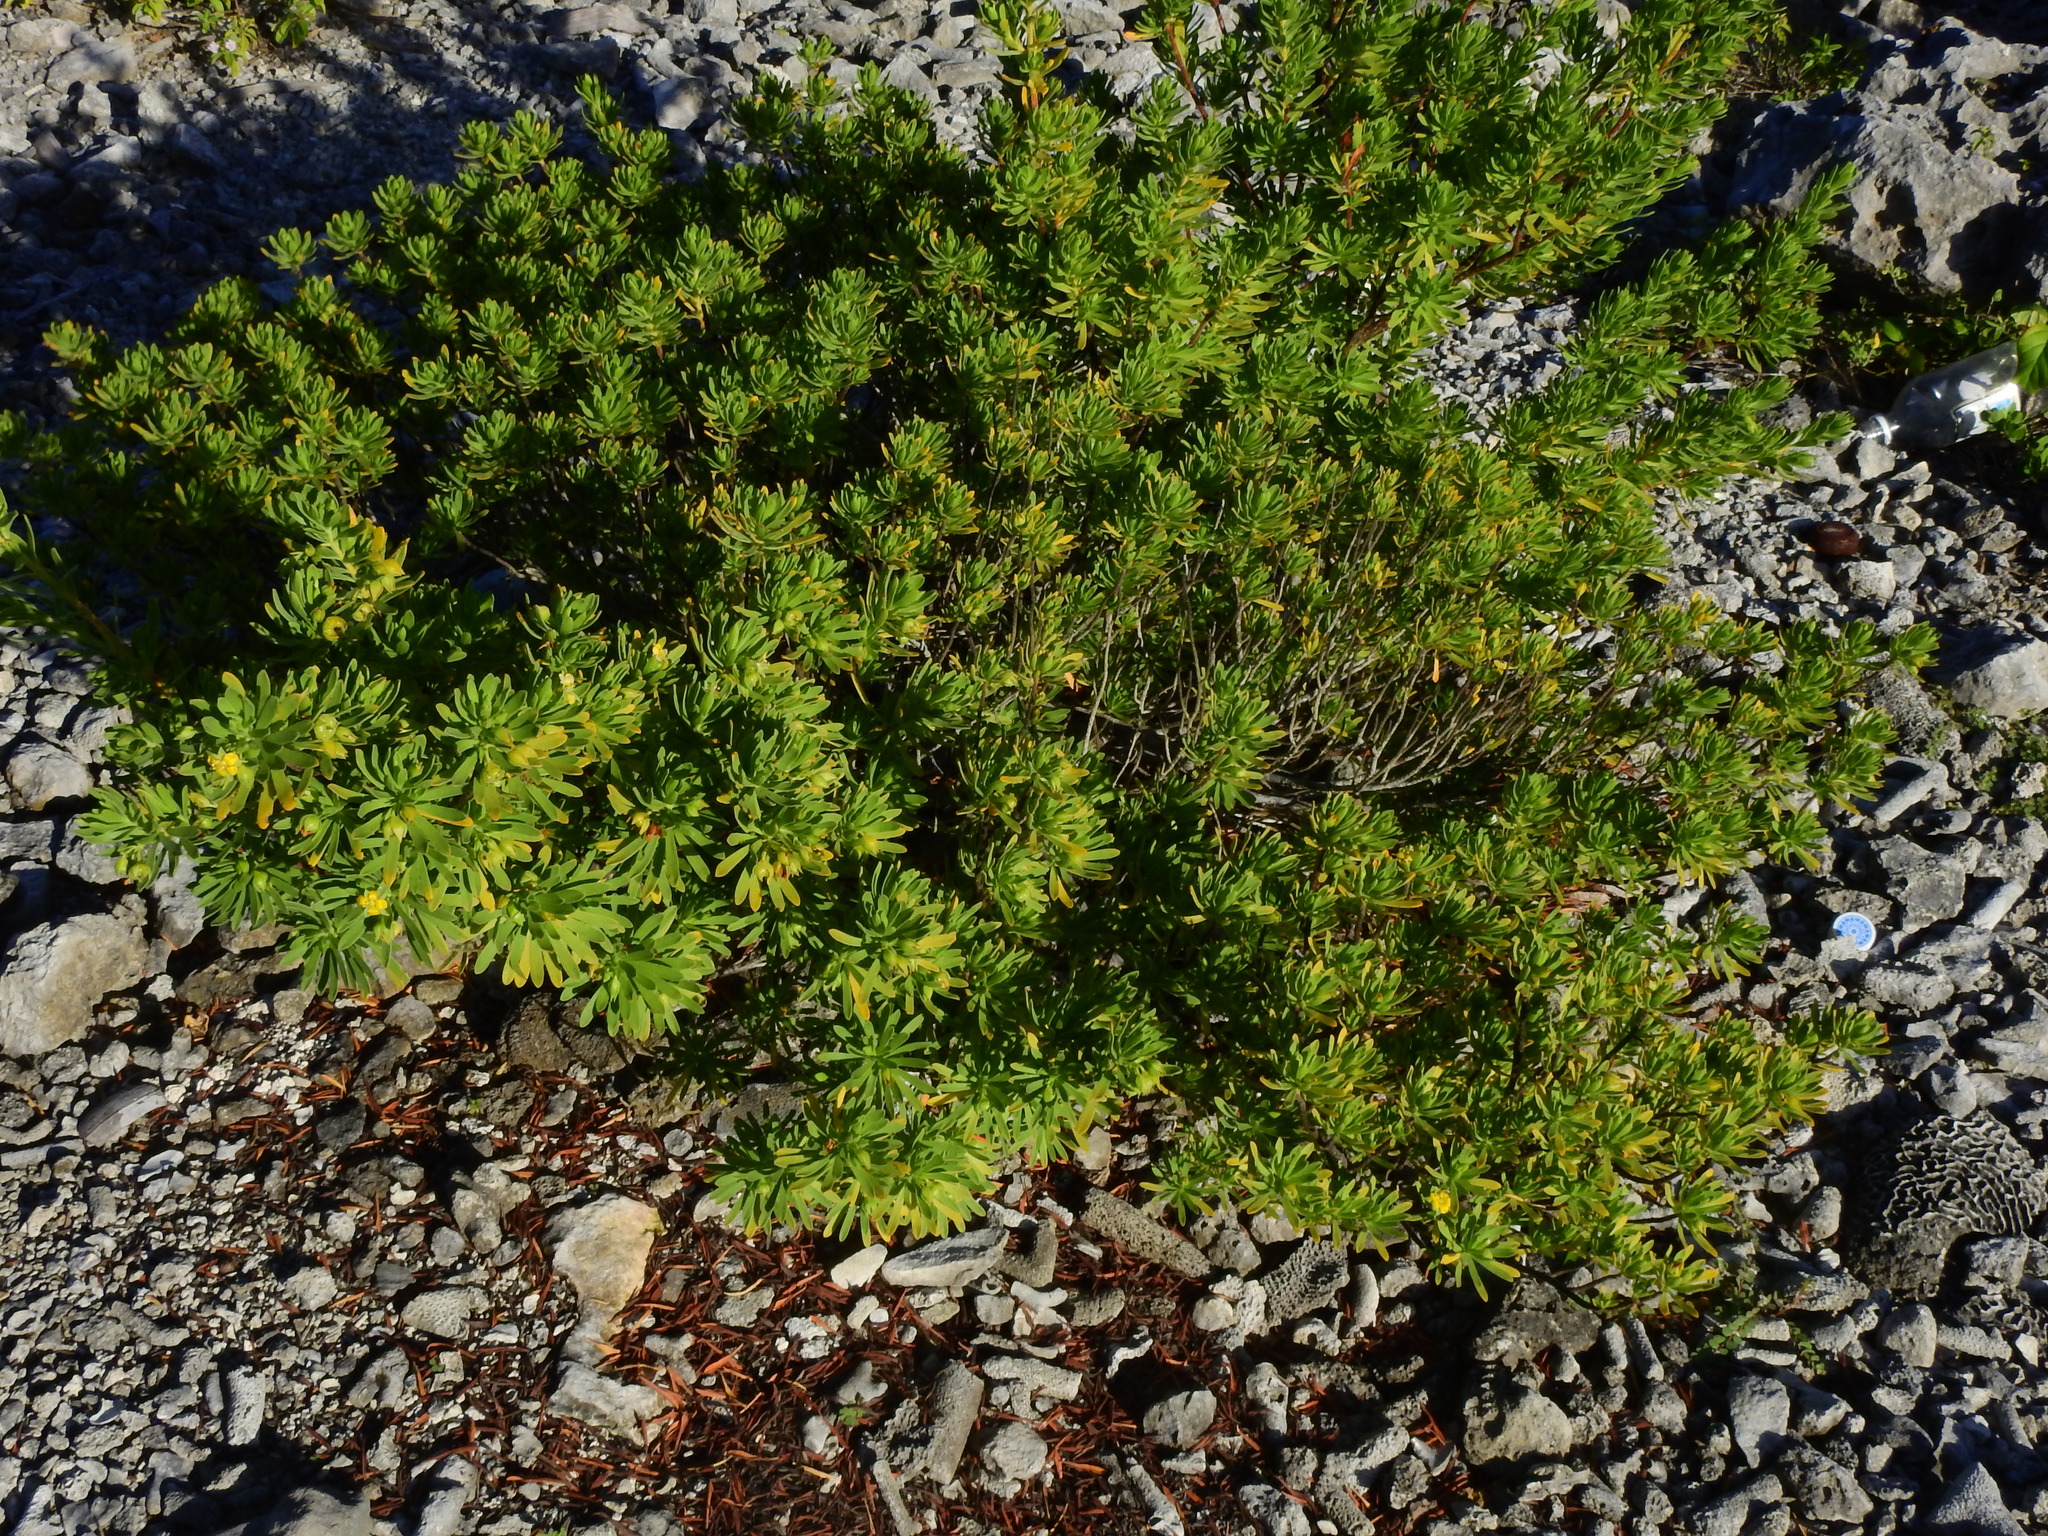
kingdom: Plantae
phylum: Tracheophyta
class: Magnoliopsida
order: Fabales
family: Surianaceae
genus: Suriana
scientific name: Suriana maritima
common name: Bay-cedar
